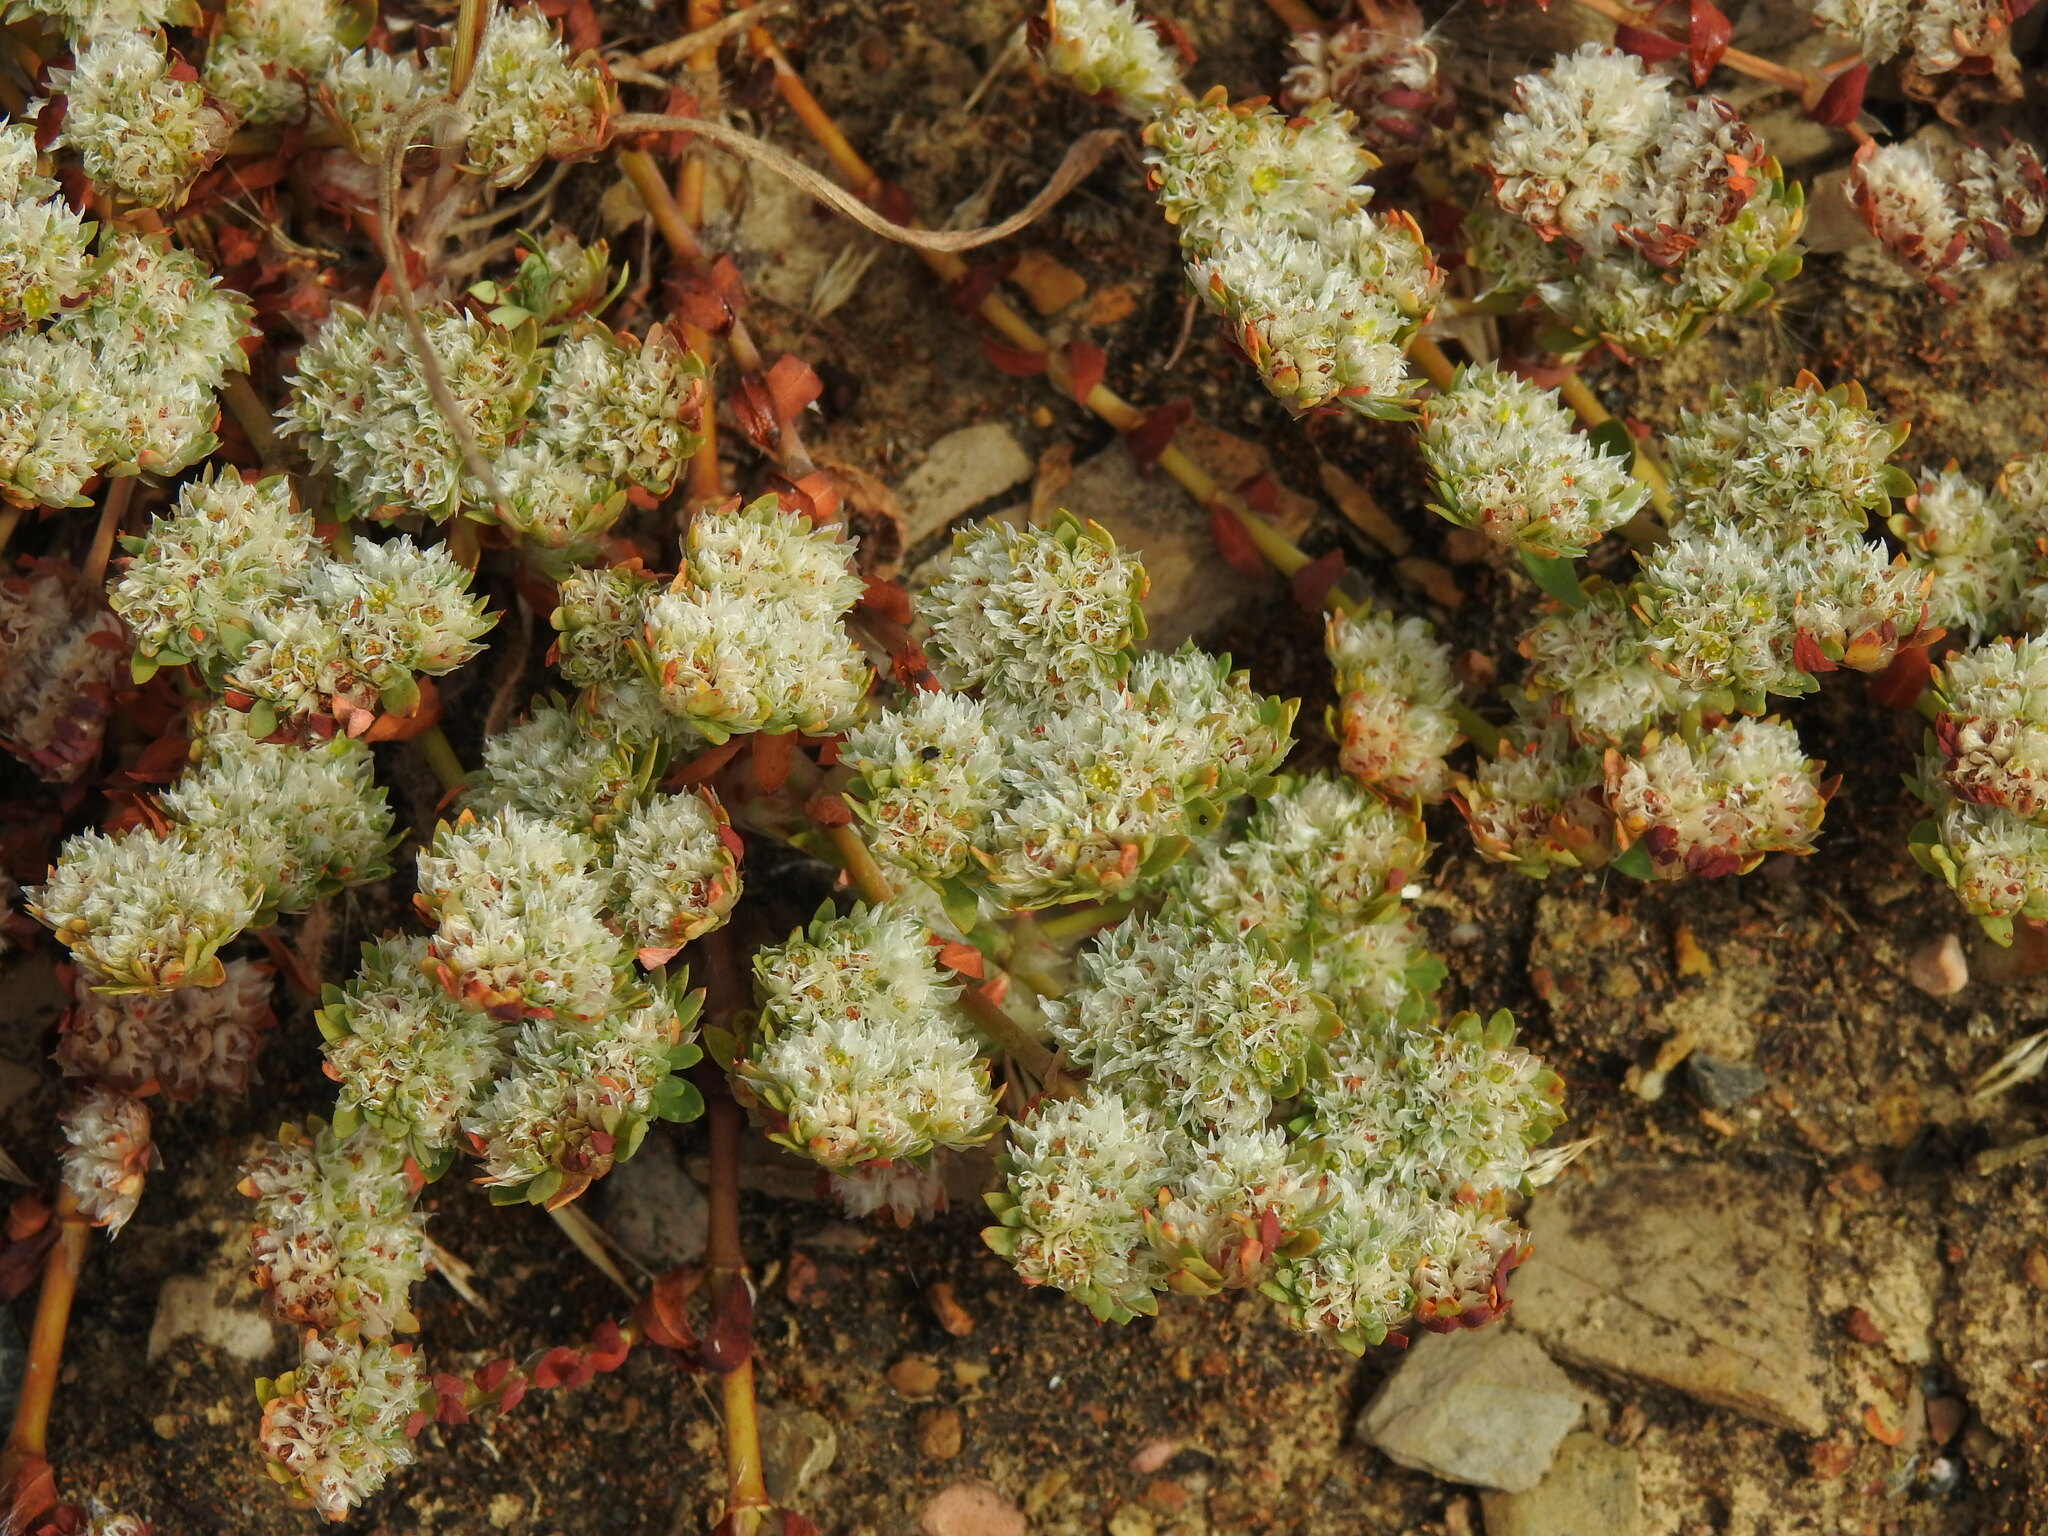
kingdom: Plantae
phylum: Tracheophyta
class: Magnoliopsida
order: Caryophyllales
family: Caryophyllaceae
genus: Paronychia
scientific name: Paronychia argentea
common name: Silver nailroot
